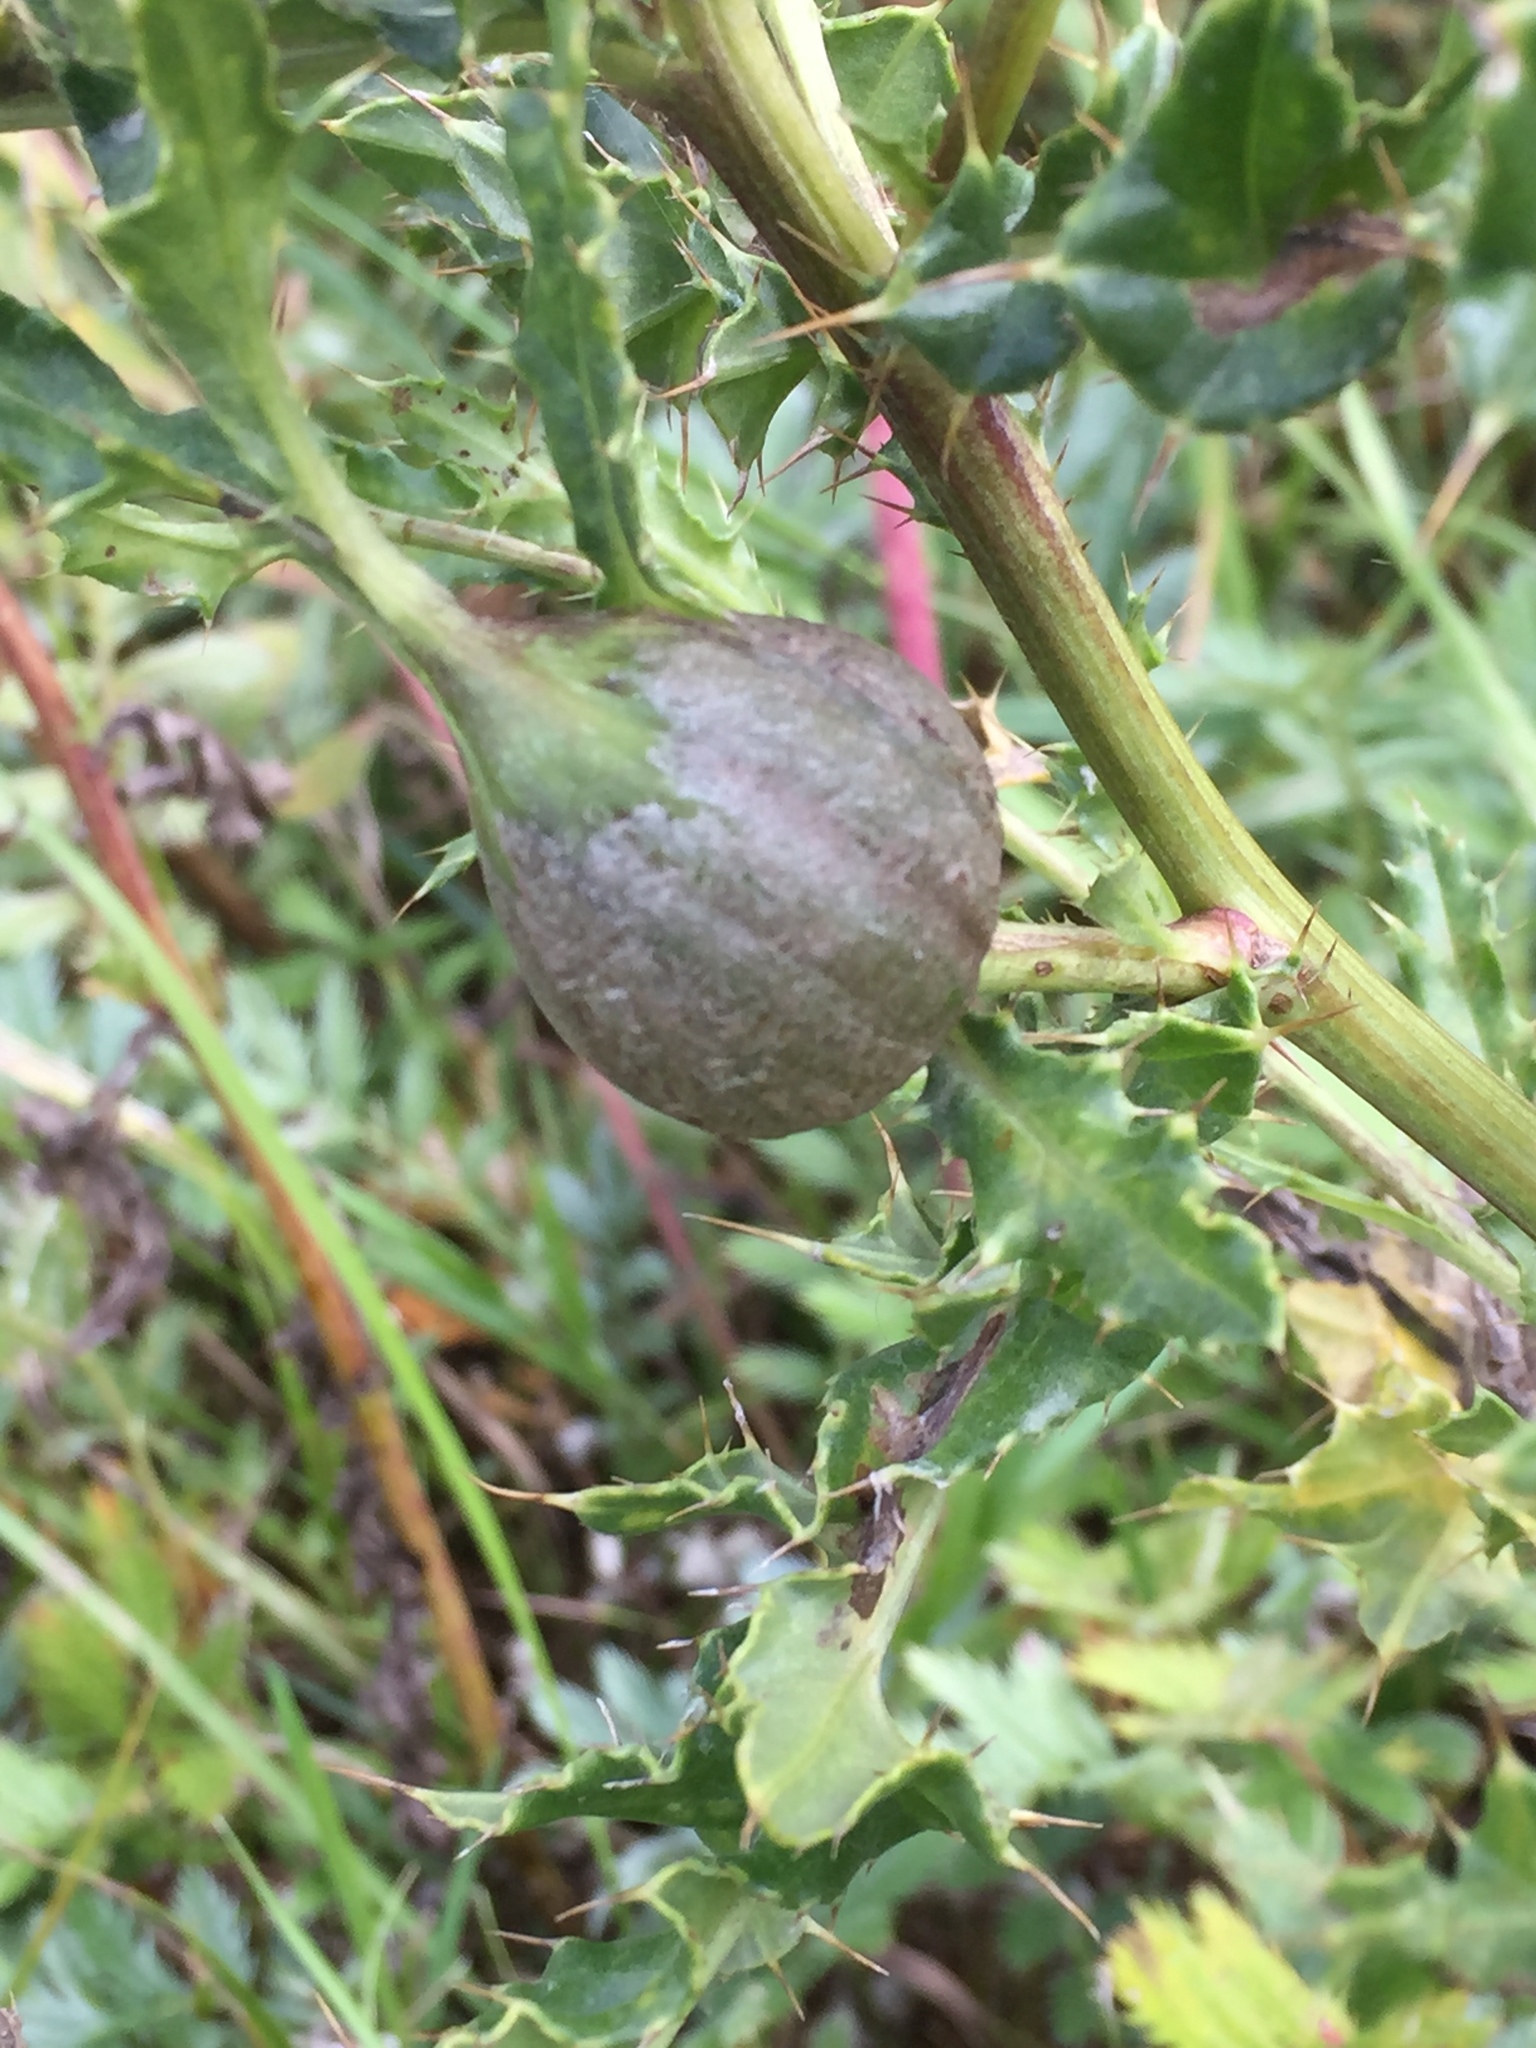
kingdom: Plantae
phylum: Tracheophyta
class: Magnoliopsida
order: Asterales
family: Asteraceae
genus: Cirsium
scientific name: Cirsium arvense
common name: Creeping thistle
